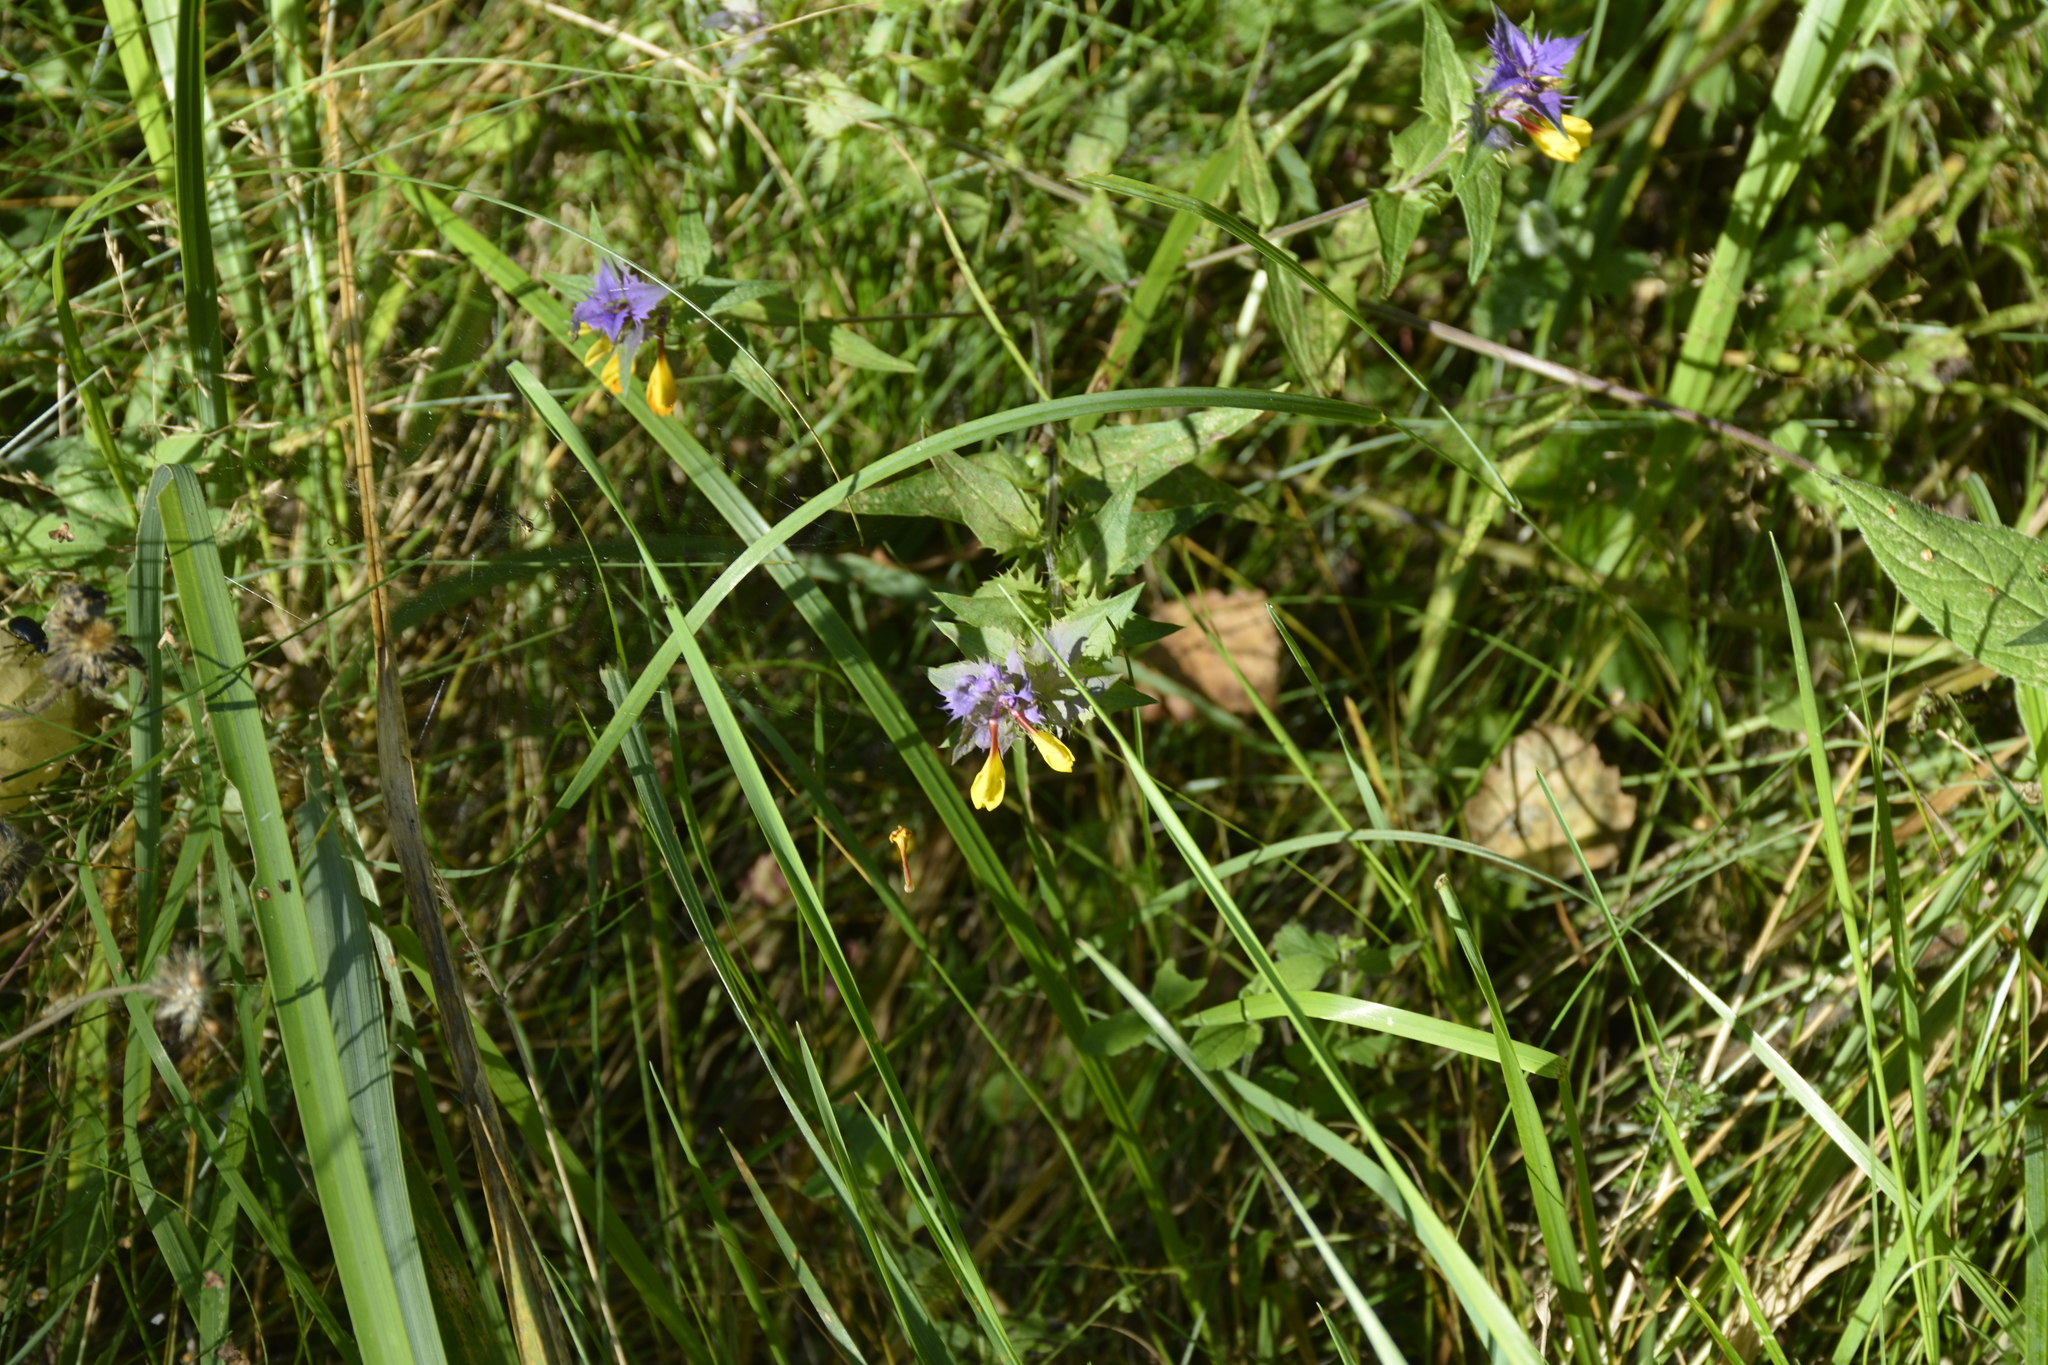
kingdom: Plantae
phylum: Tracheophyta
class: Magnoliopsida
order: Lamiales
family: Orobanchaceae
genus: Melampyrum
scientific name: Melampyrum nemorosum
